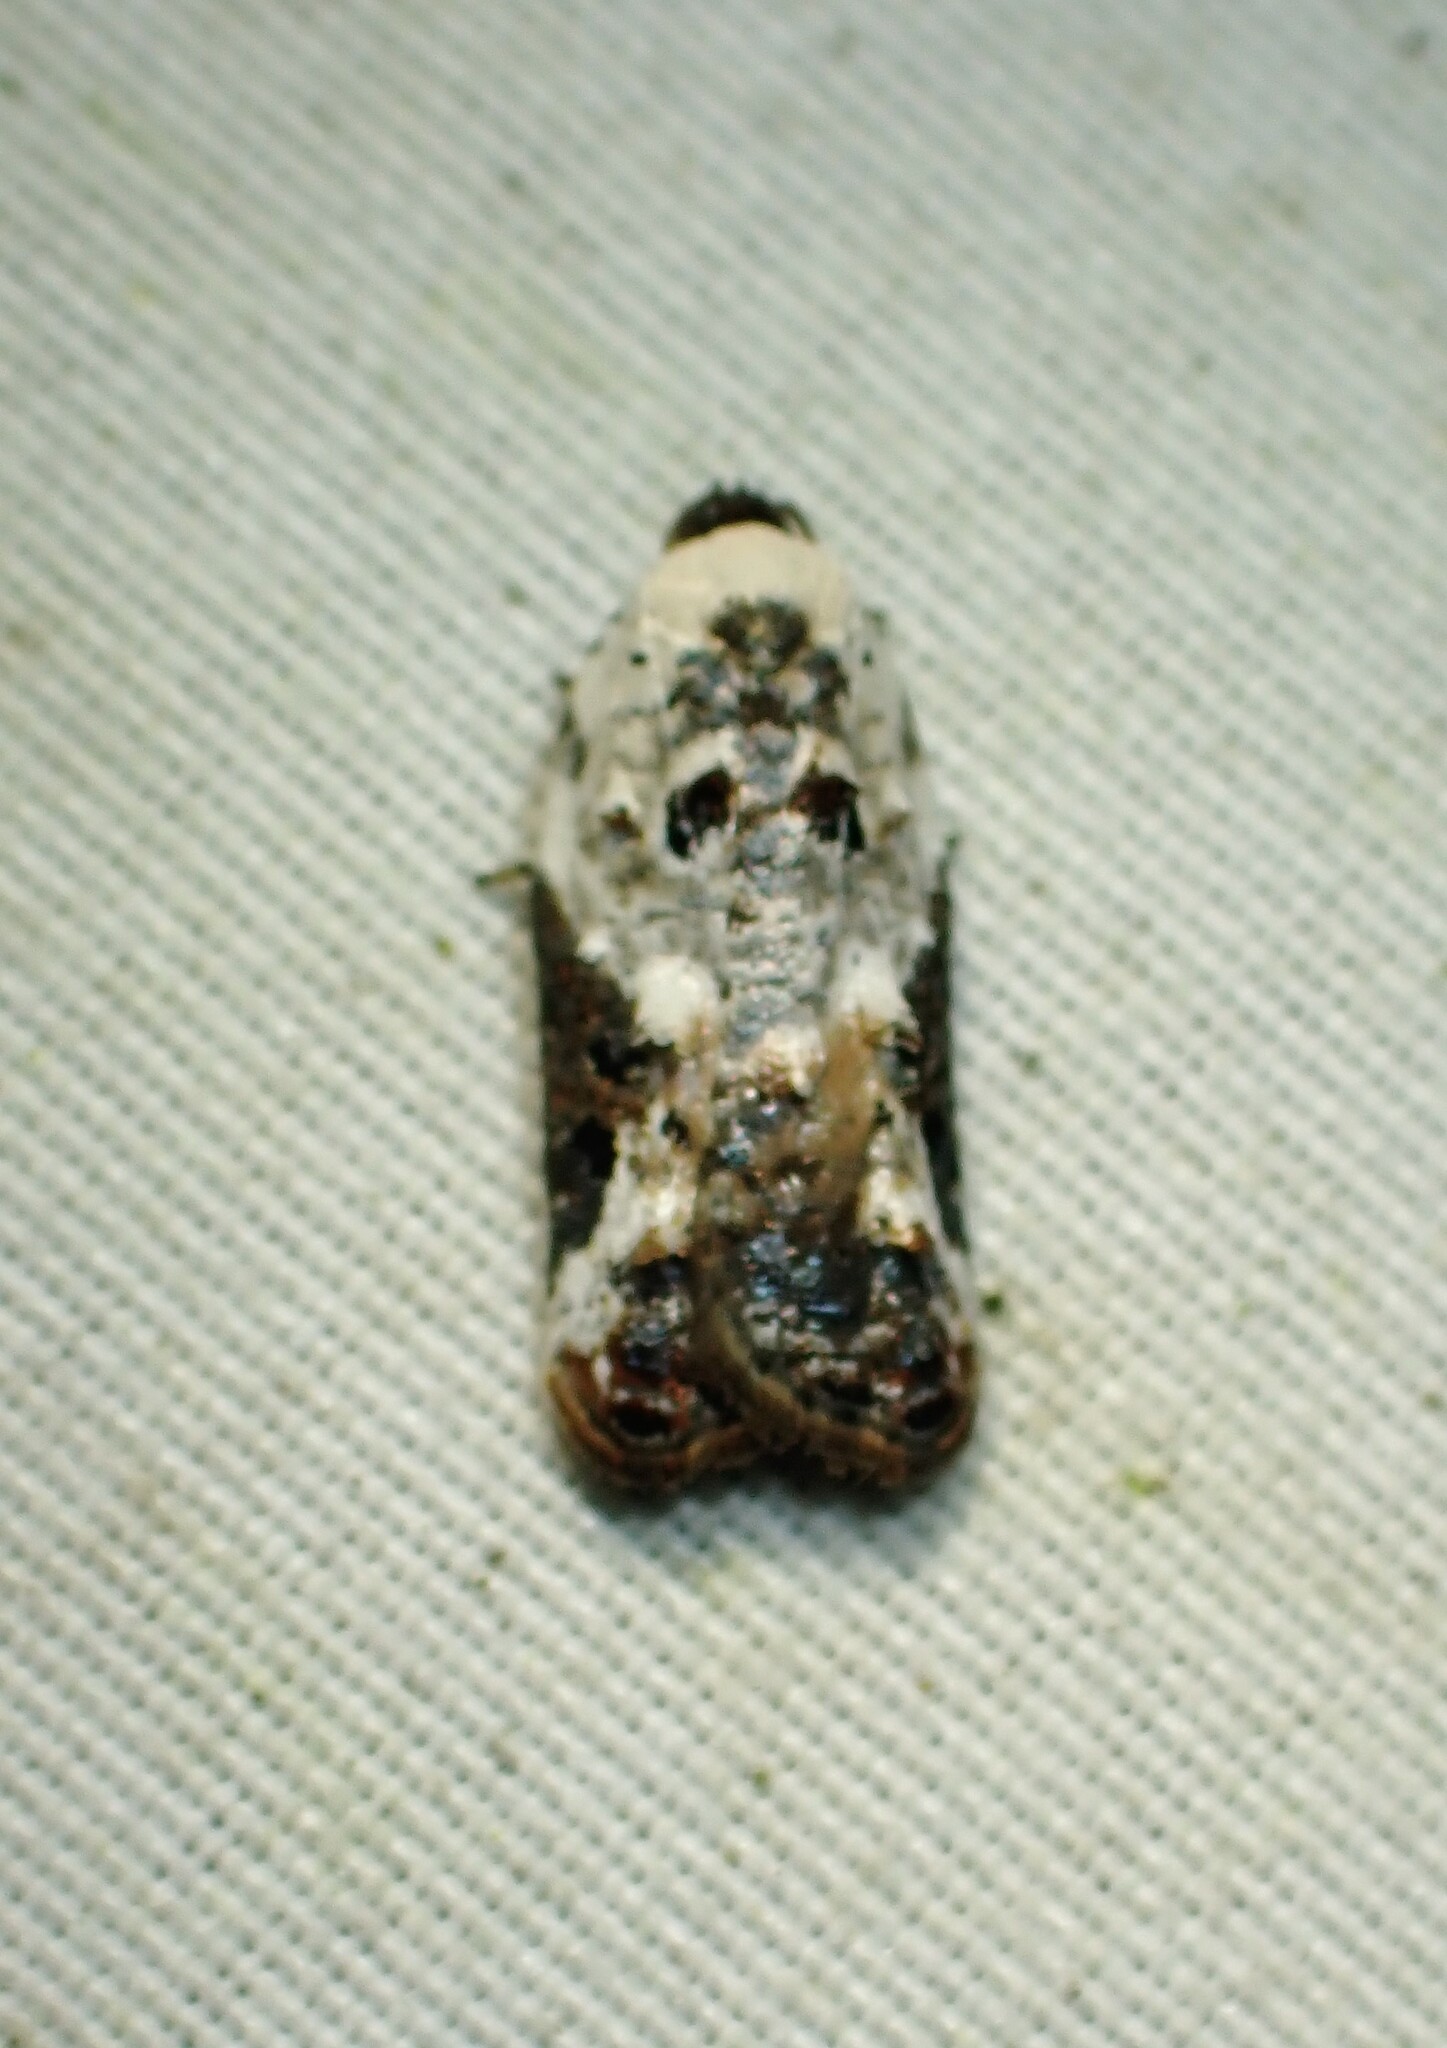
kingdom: Animalia
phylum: Arthropoda
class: Insecta
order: Lepidoptera
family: Tortricidae
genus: Acleris
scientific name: Acleris nivisellana
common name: Snowy-shouldered acleris moth
